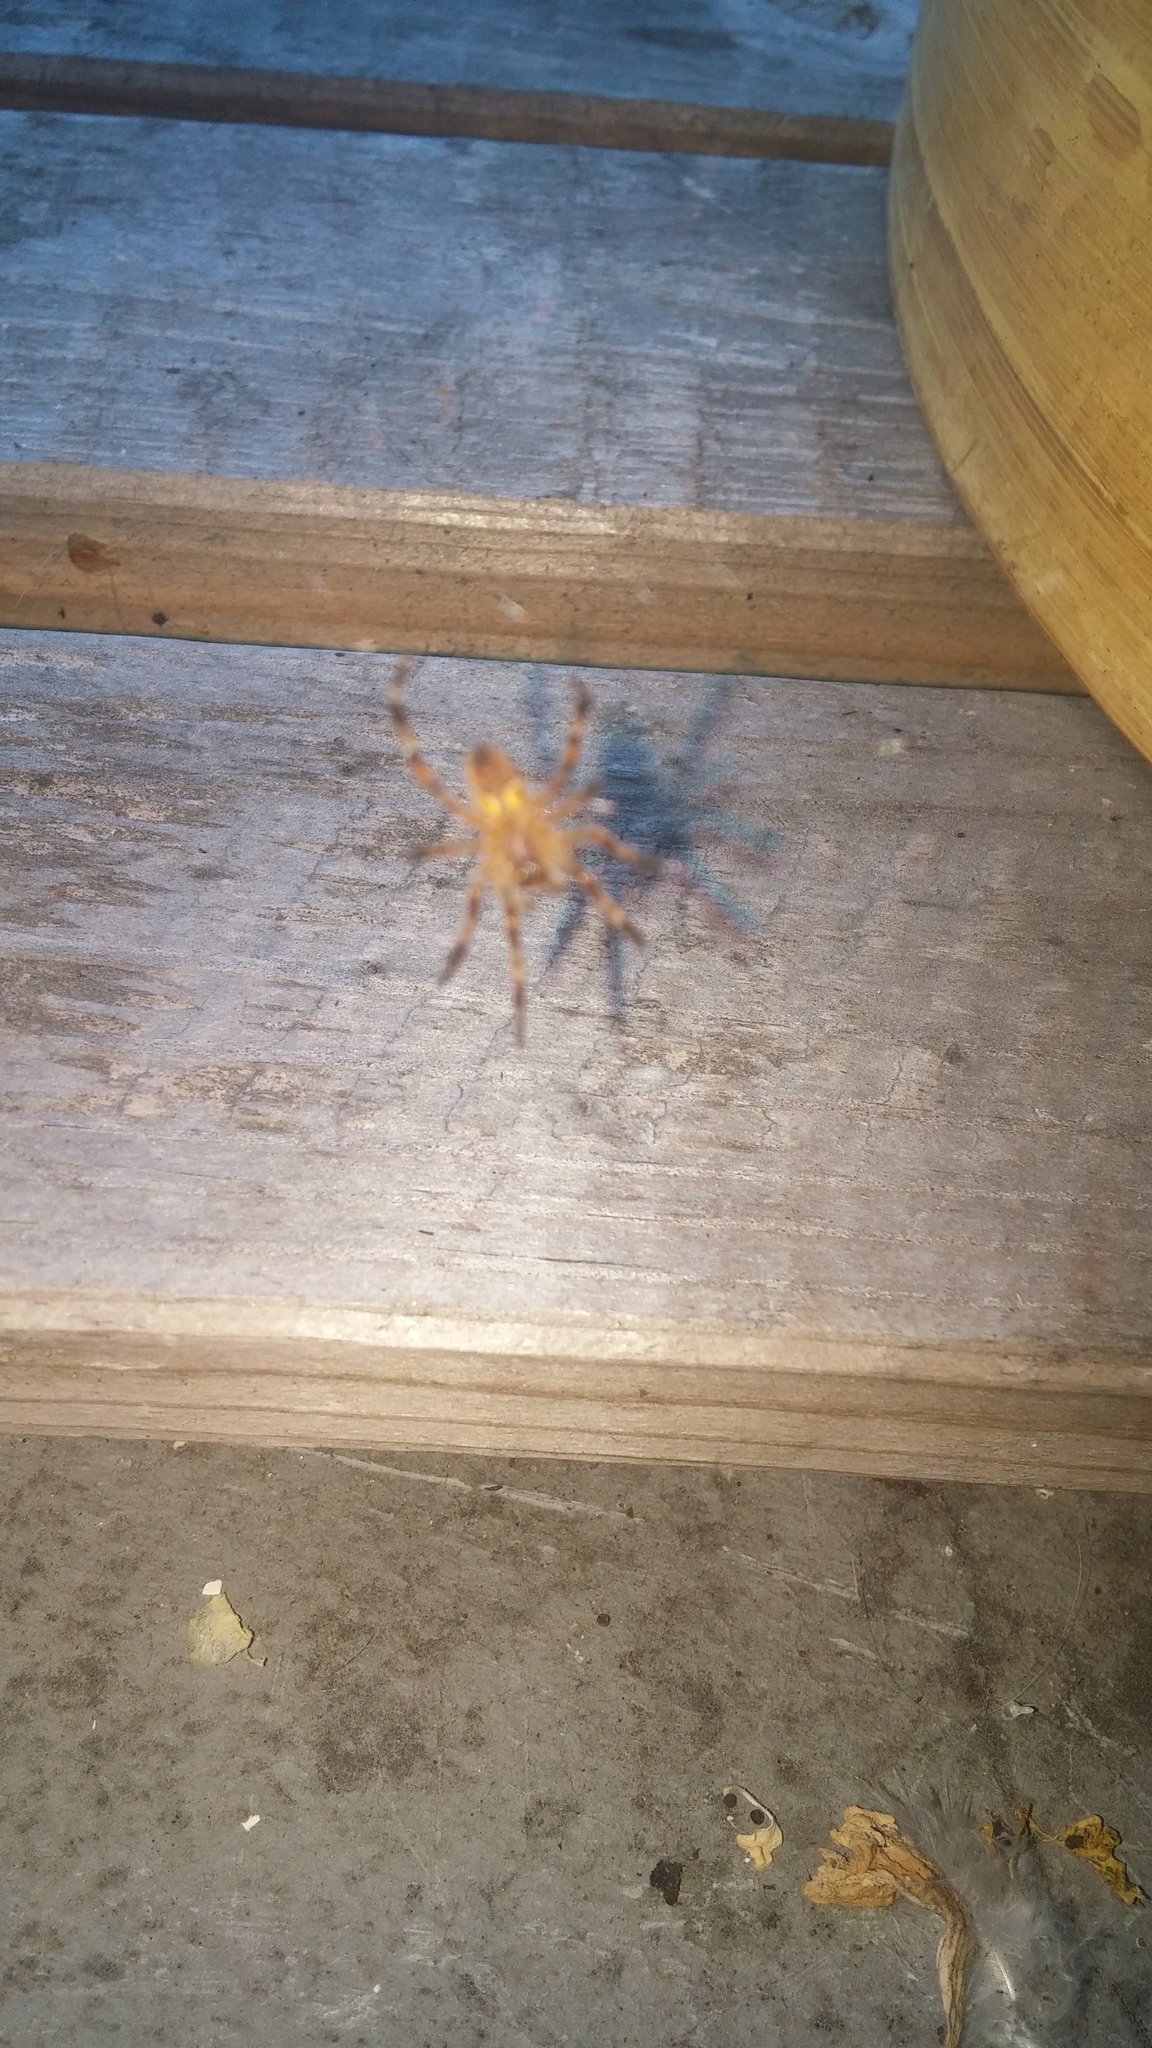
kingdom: Animalia
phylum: Arthropoda
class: Arachnida
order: Araneae
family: Araneidae
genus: Araneus
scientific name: Araneus diadematus
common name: Cross orbweaver
